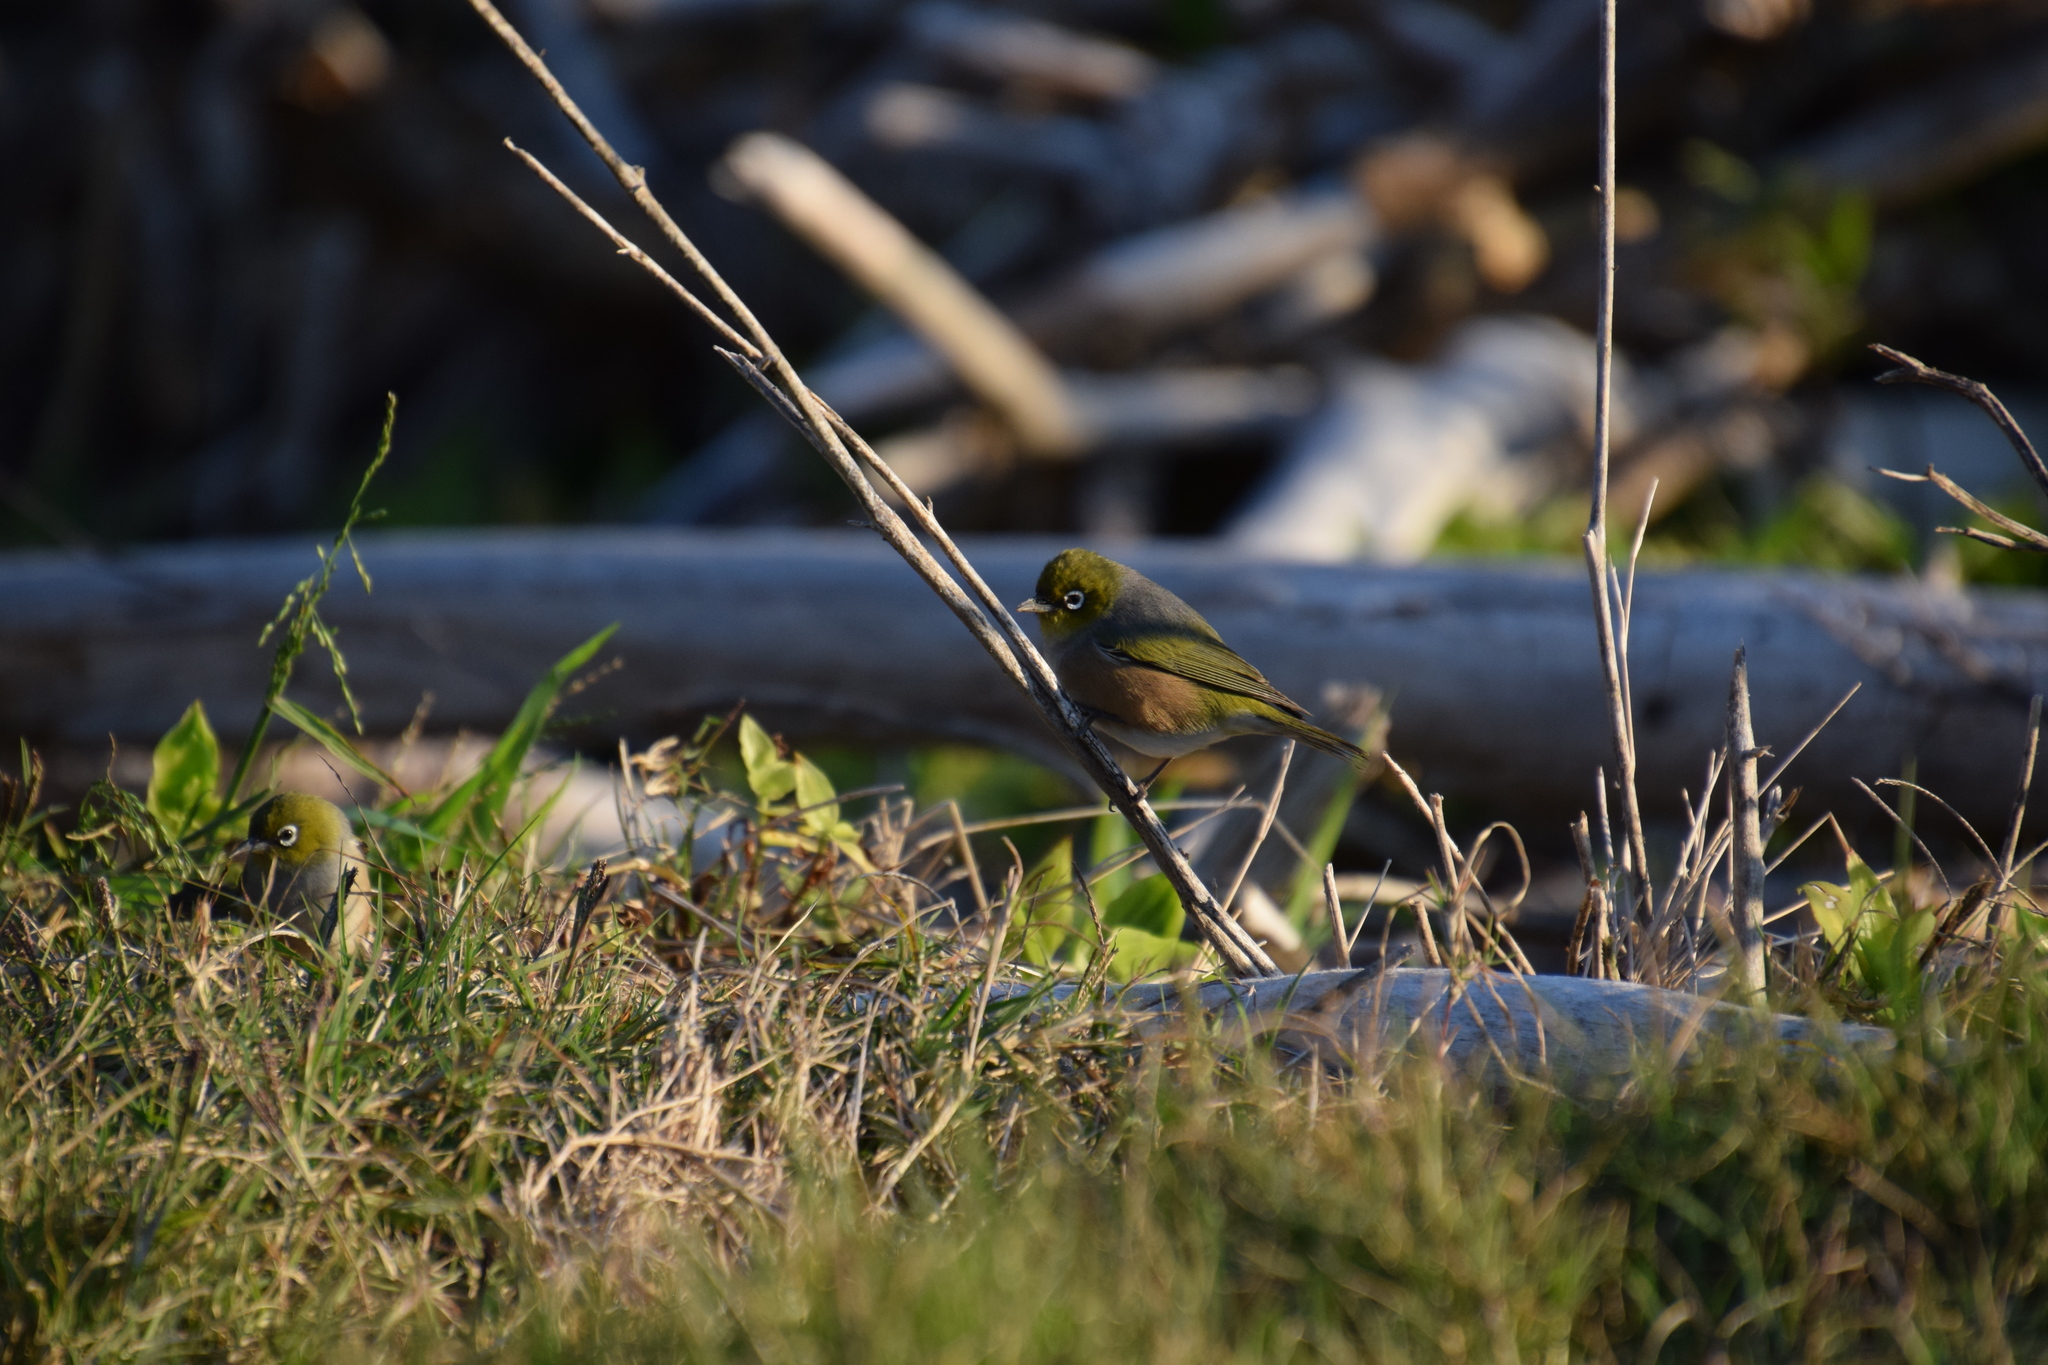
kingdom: Animalia
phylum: Chordata
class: Aves
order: Passeriformes
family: Zosteropidae
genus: Zosterops
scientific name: Zosterops lateralis
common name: Silvereye
